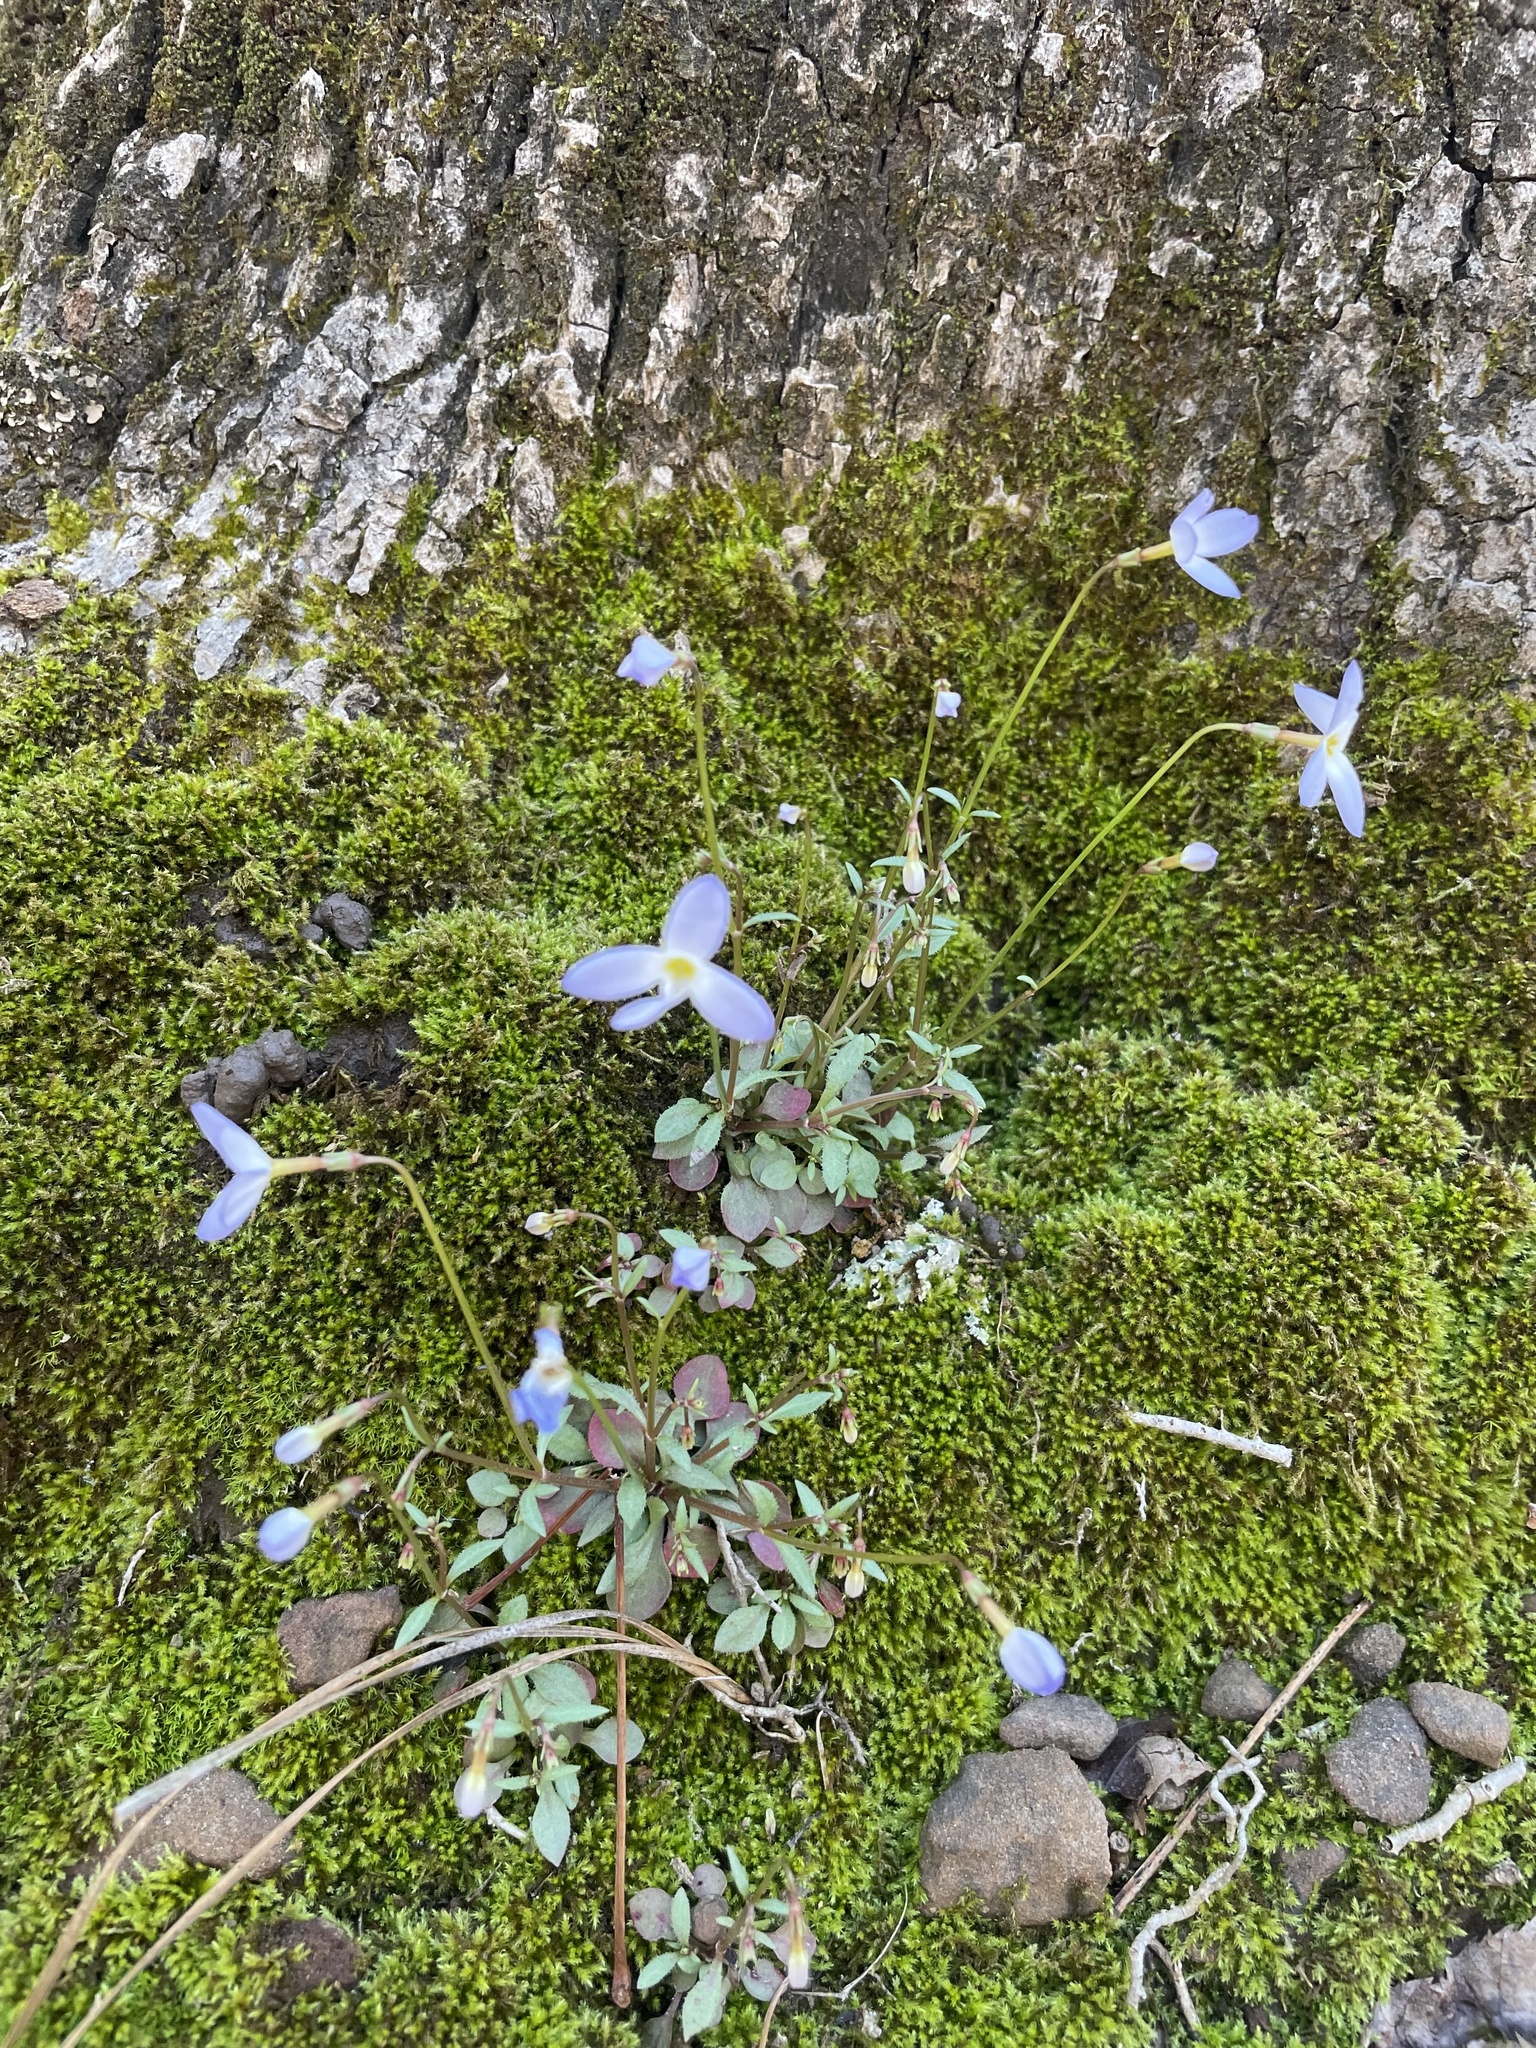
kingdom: Plantae
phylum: Tracheophyta
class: Magnoliopsida
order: Gentianales
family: Rubiaceae
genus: Houstonia
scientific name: Houstonia caerulea
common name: Bluets
